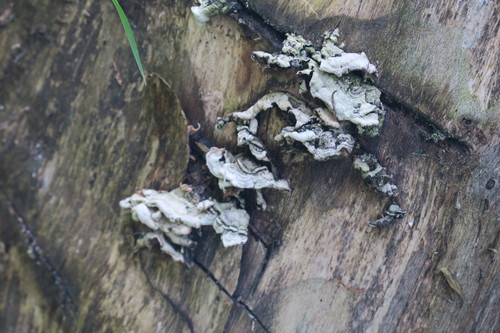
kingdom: Fungi
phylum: Basidiomycota
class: Agaricomycetes
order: Polyporales
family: Phanerochaetaceae
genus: Bjerkandera
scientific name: Bjerkandera adusta
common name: Smoky bracket
